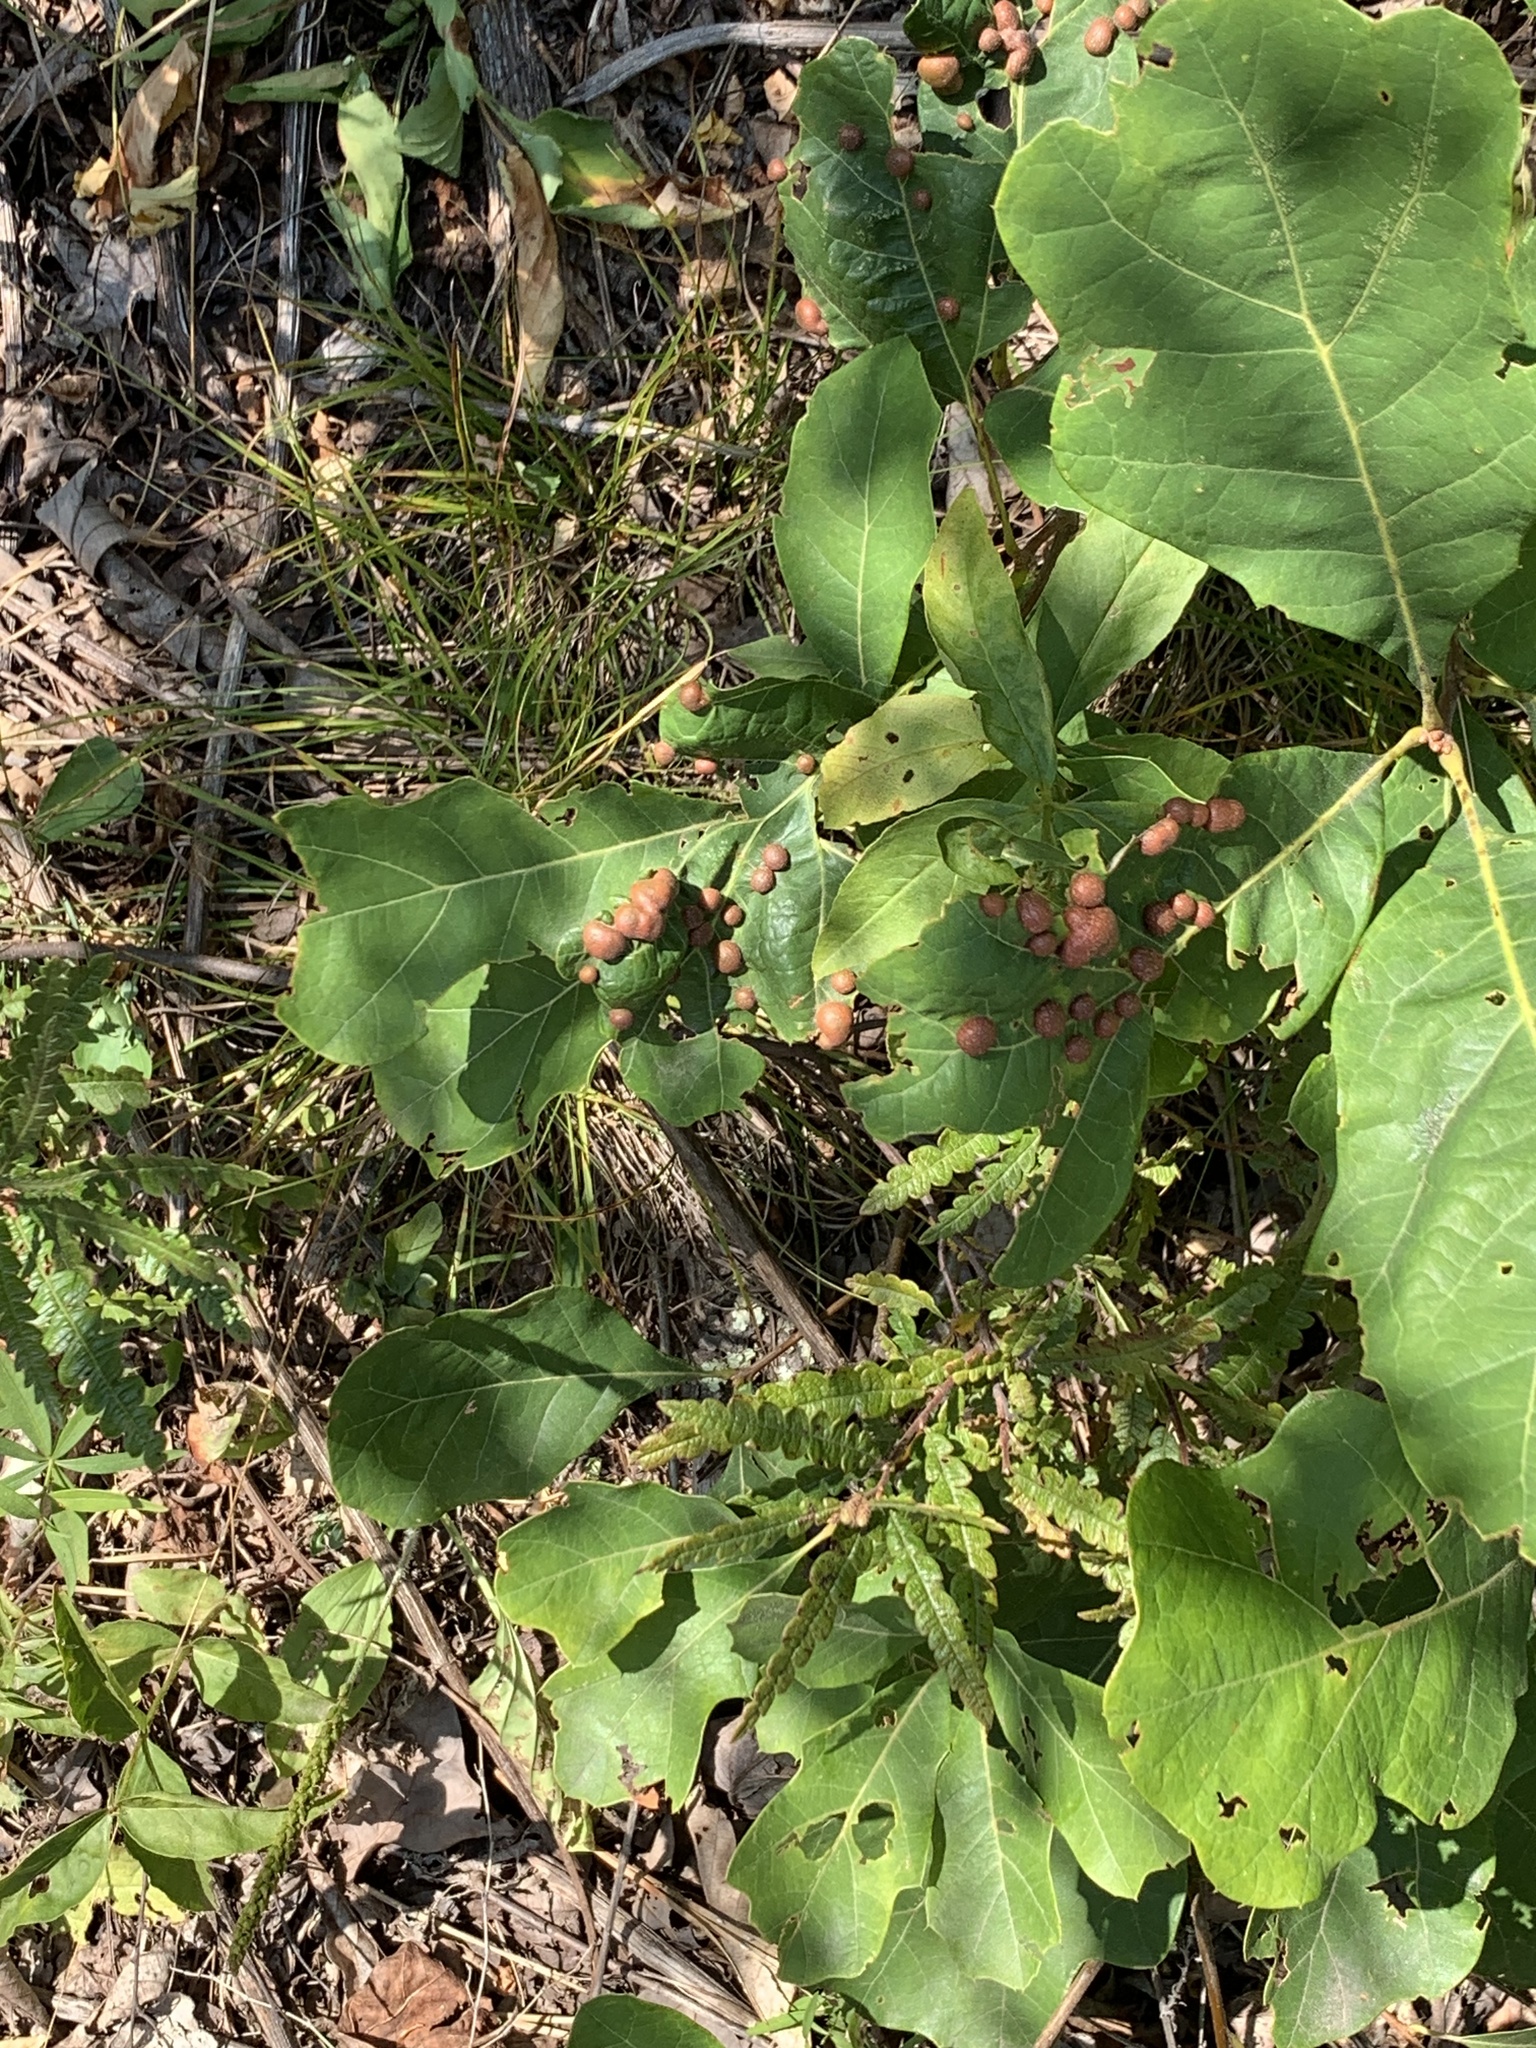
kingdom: Animalia
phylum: Arthropoda
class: Insecta
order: Diptera
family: Cecidomyiidae
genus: Polystepha
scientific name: Polystepha pilulae
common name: Oak leaf gall midge
